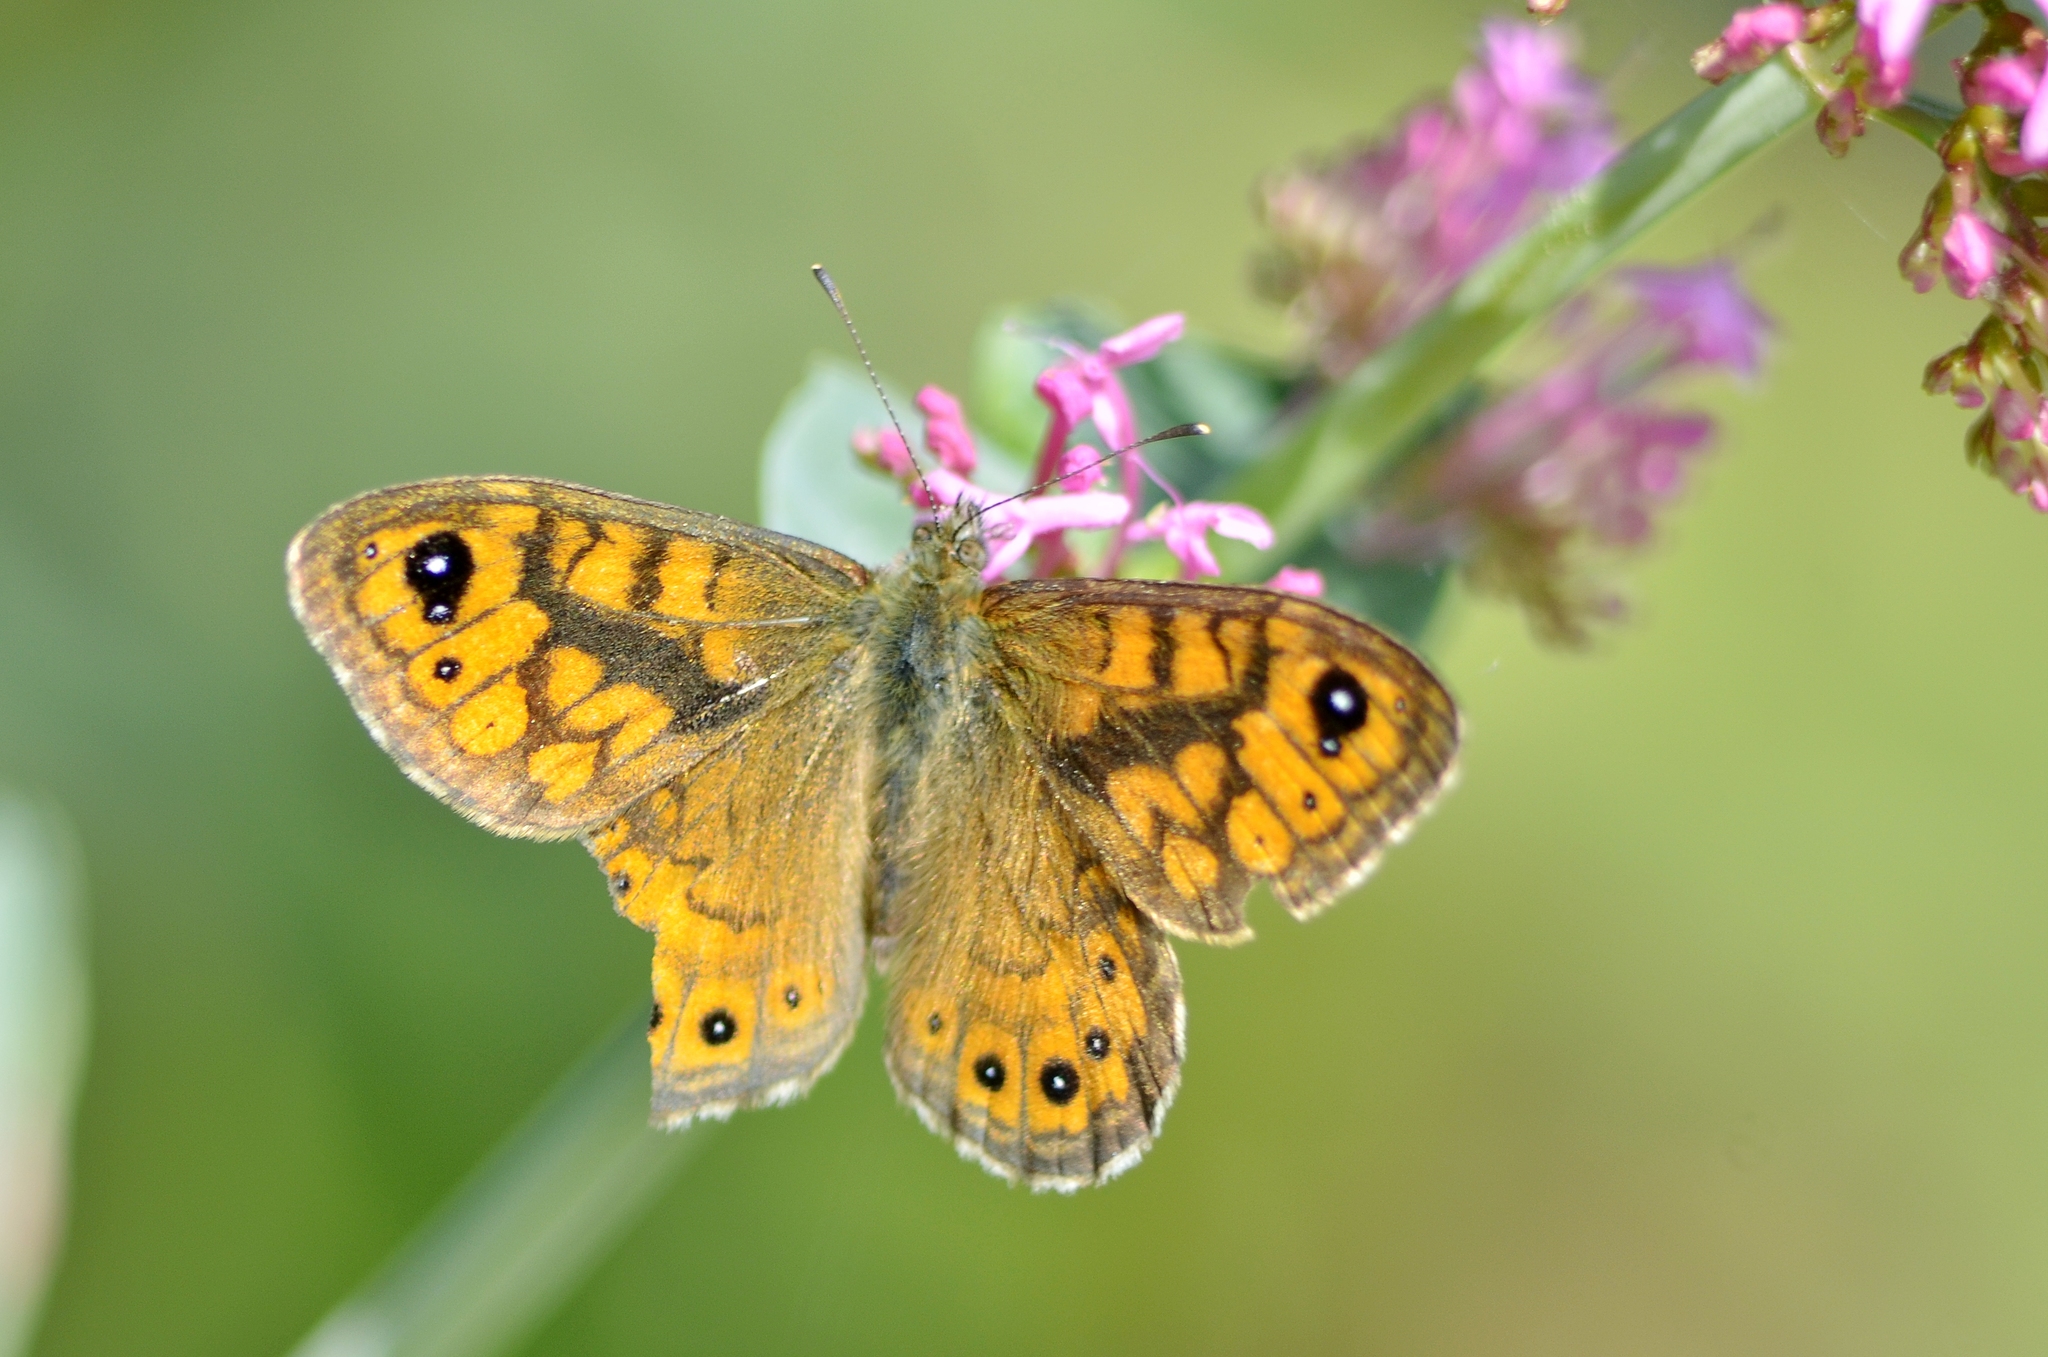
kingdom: Animalia
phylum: Arthropoda
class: Insecta
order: Lepidoptera
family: Nymphalidae
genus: Pararge
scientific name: Pararge Lasiommata megera
